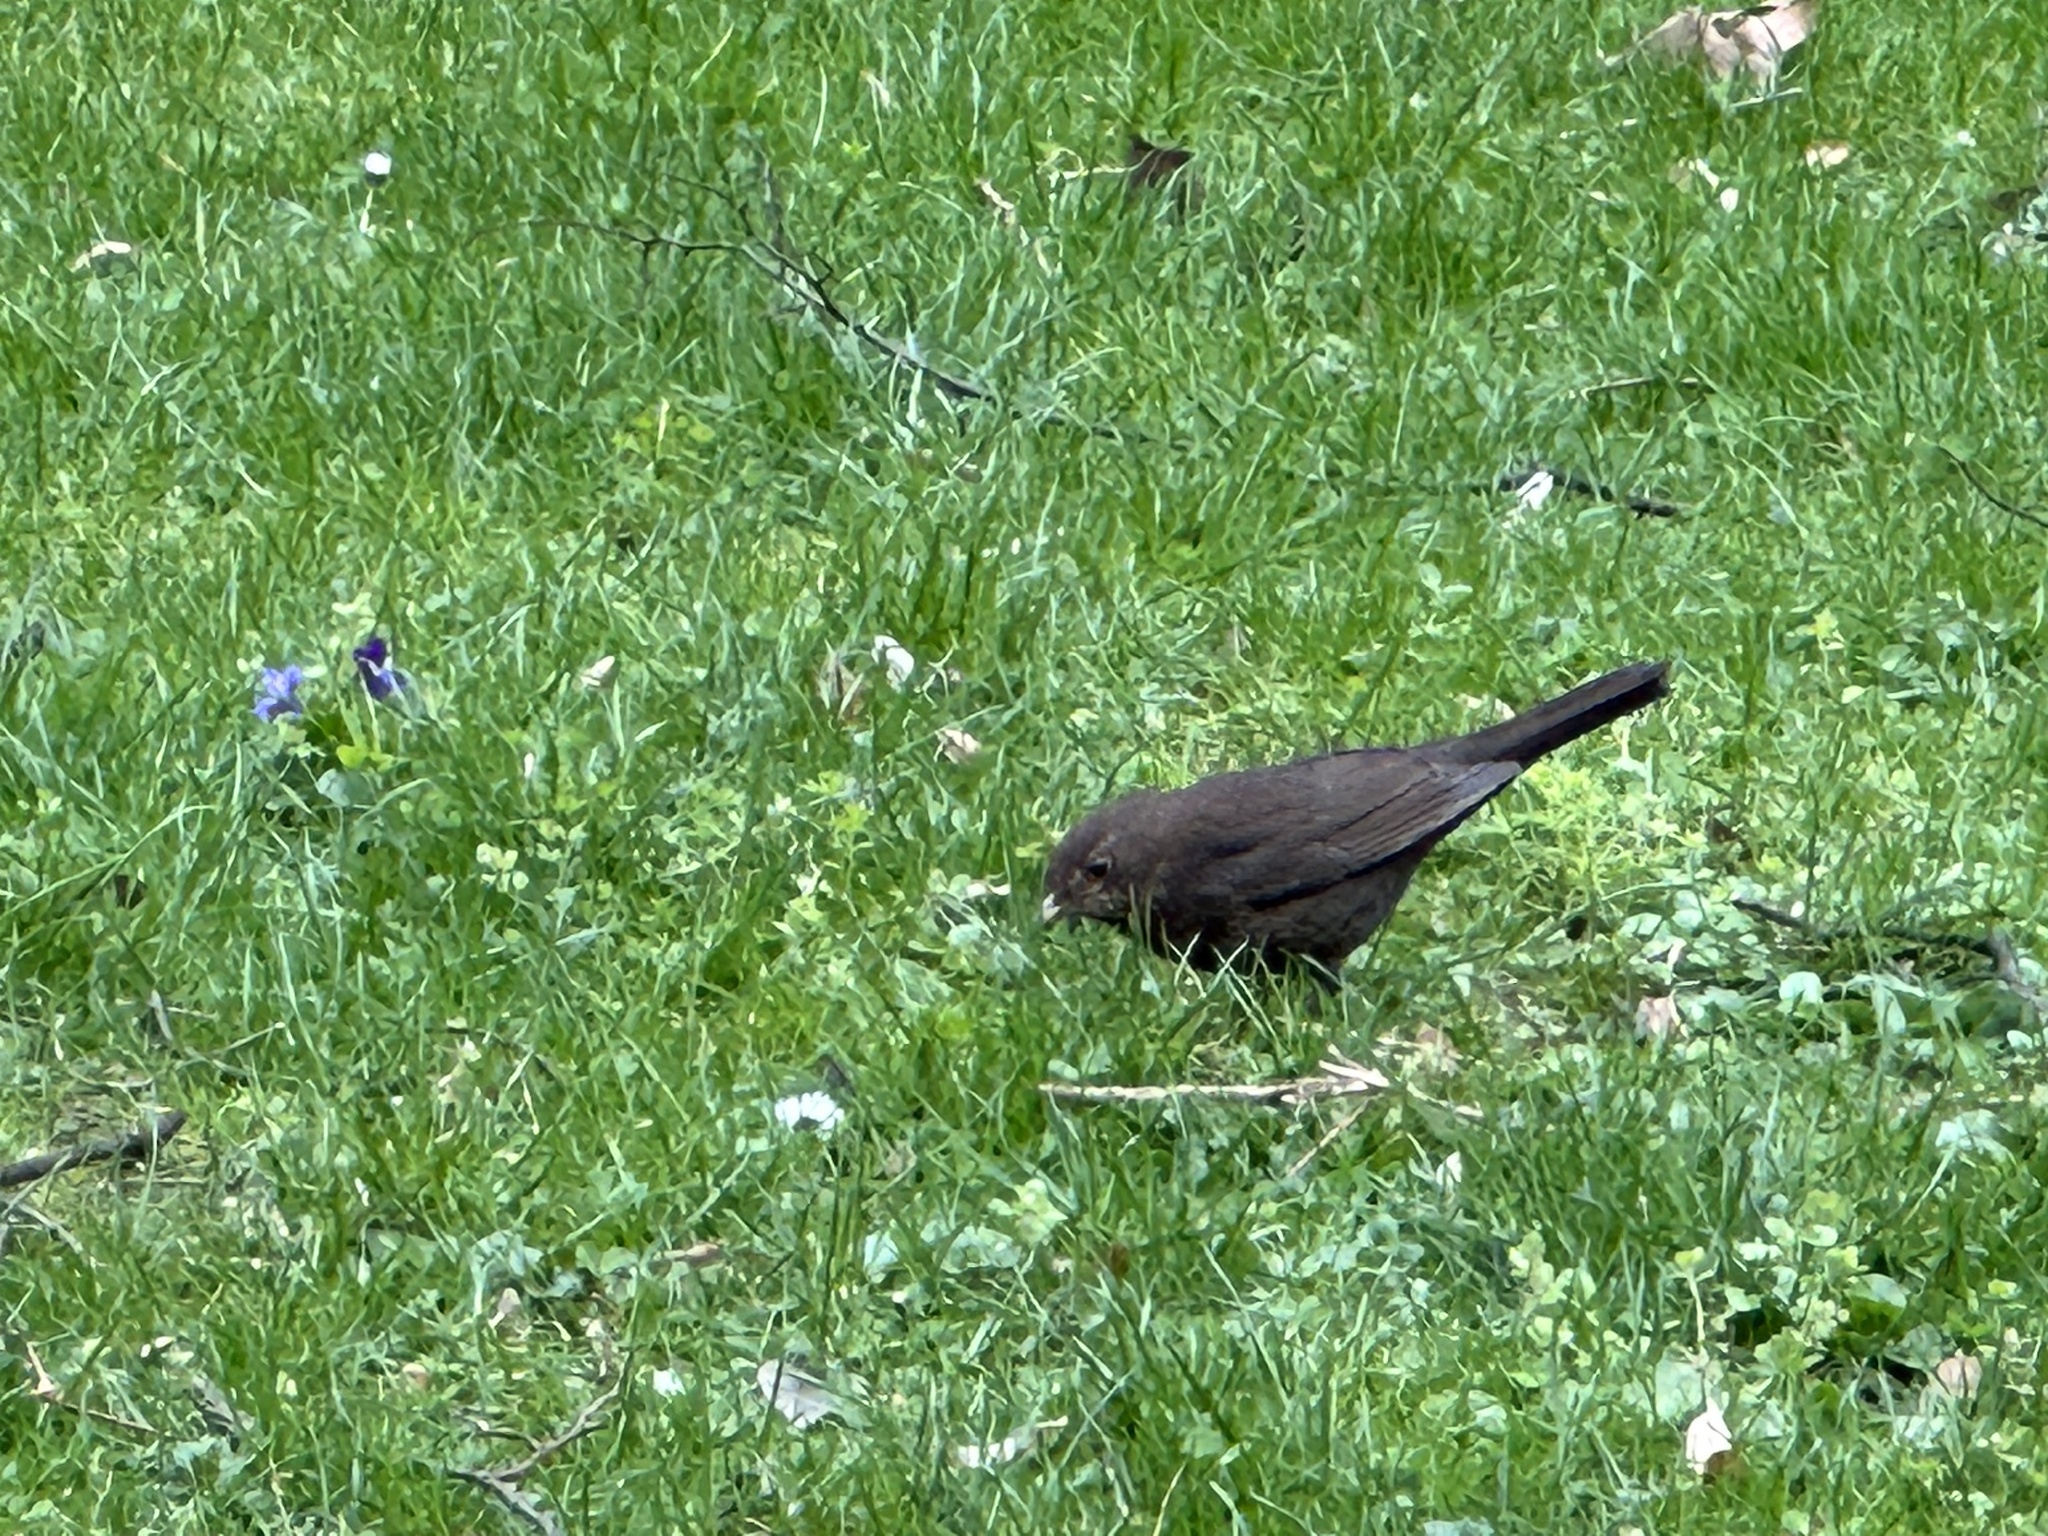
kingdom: Animalia
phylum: Chordata
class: Aves
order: Passeriformes
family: Turdidae
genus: Turdus
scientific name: Turdus merula
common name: Common blackbird
